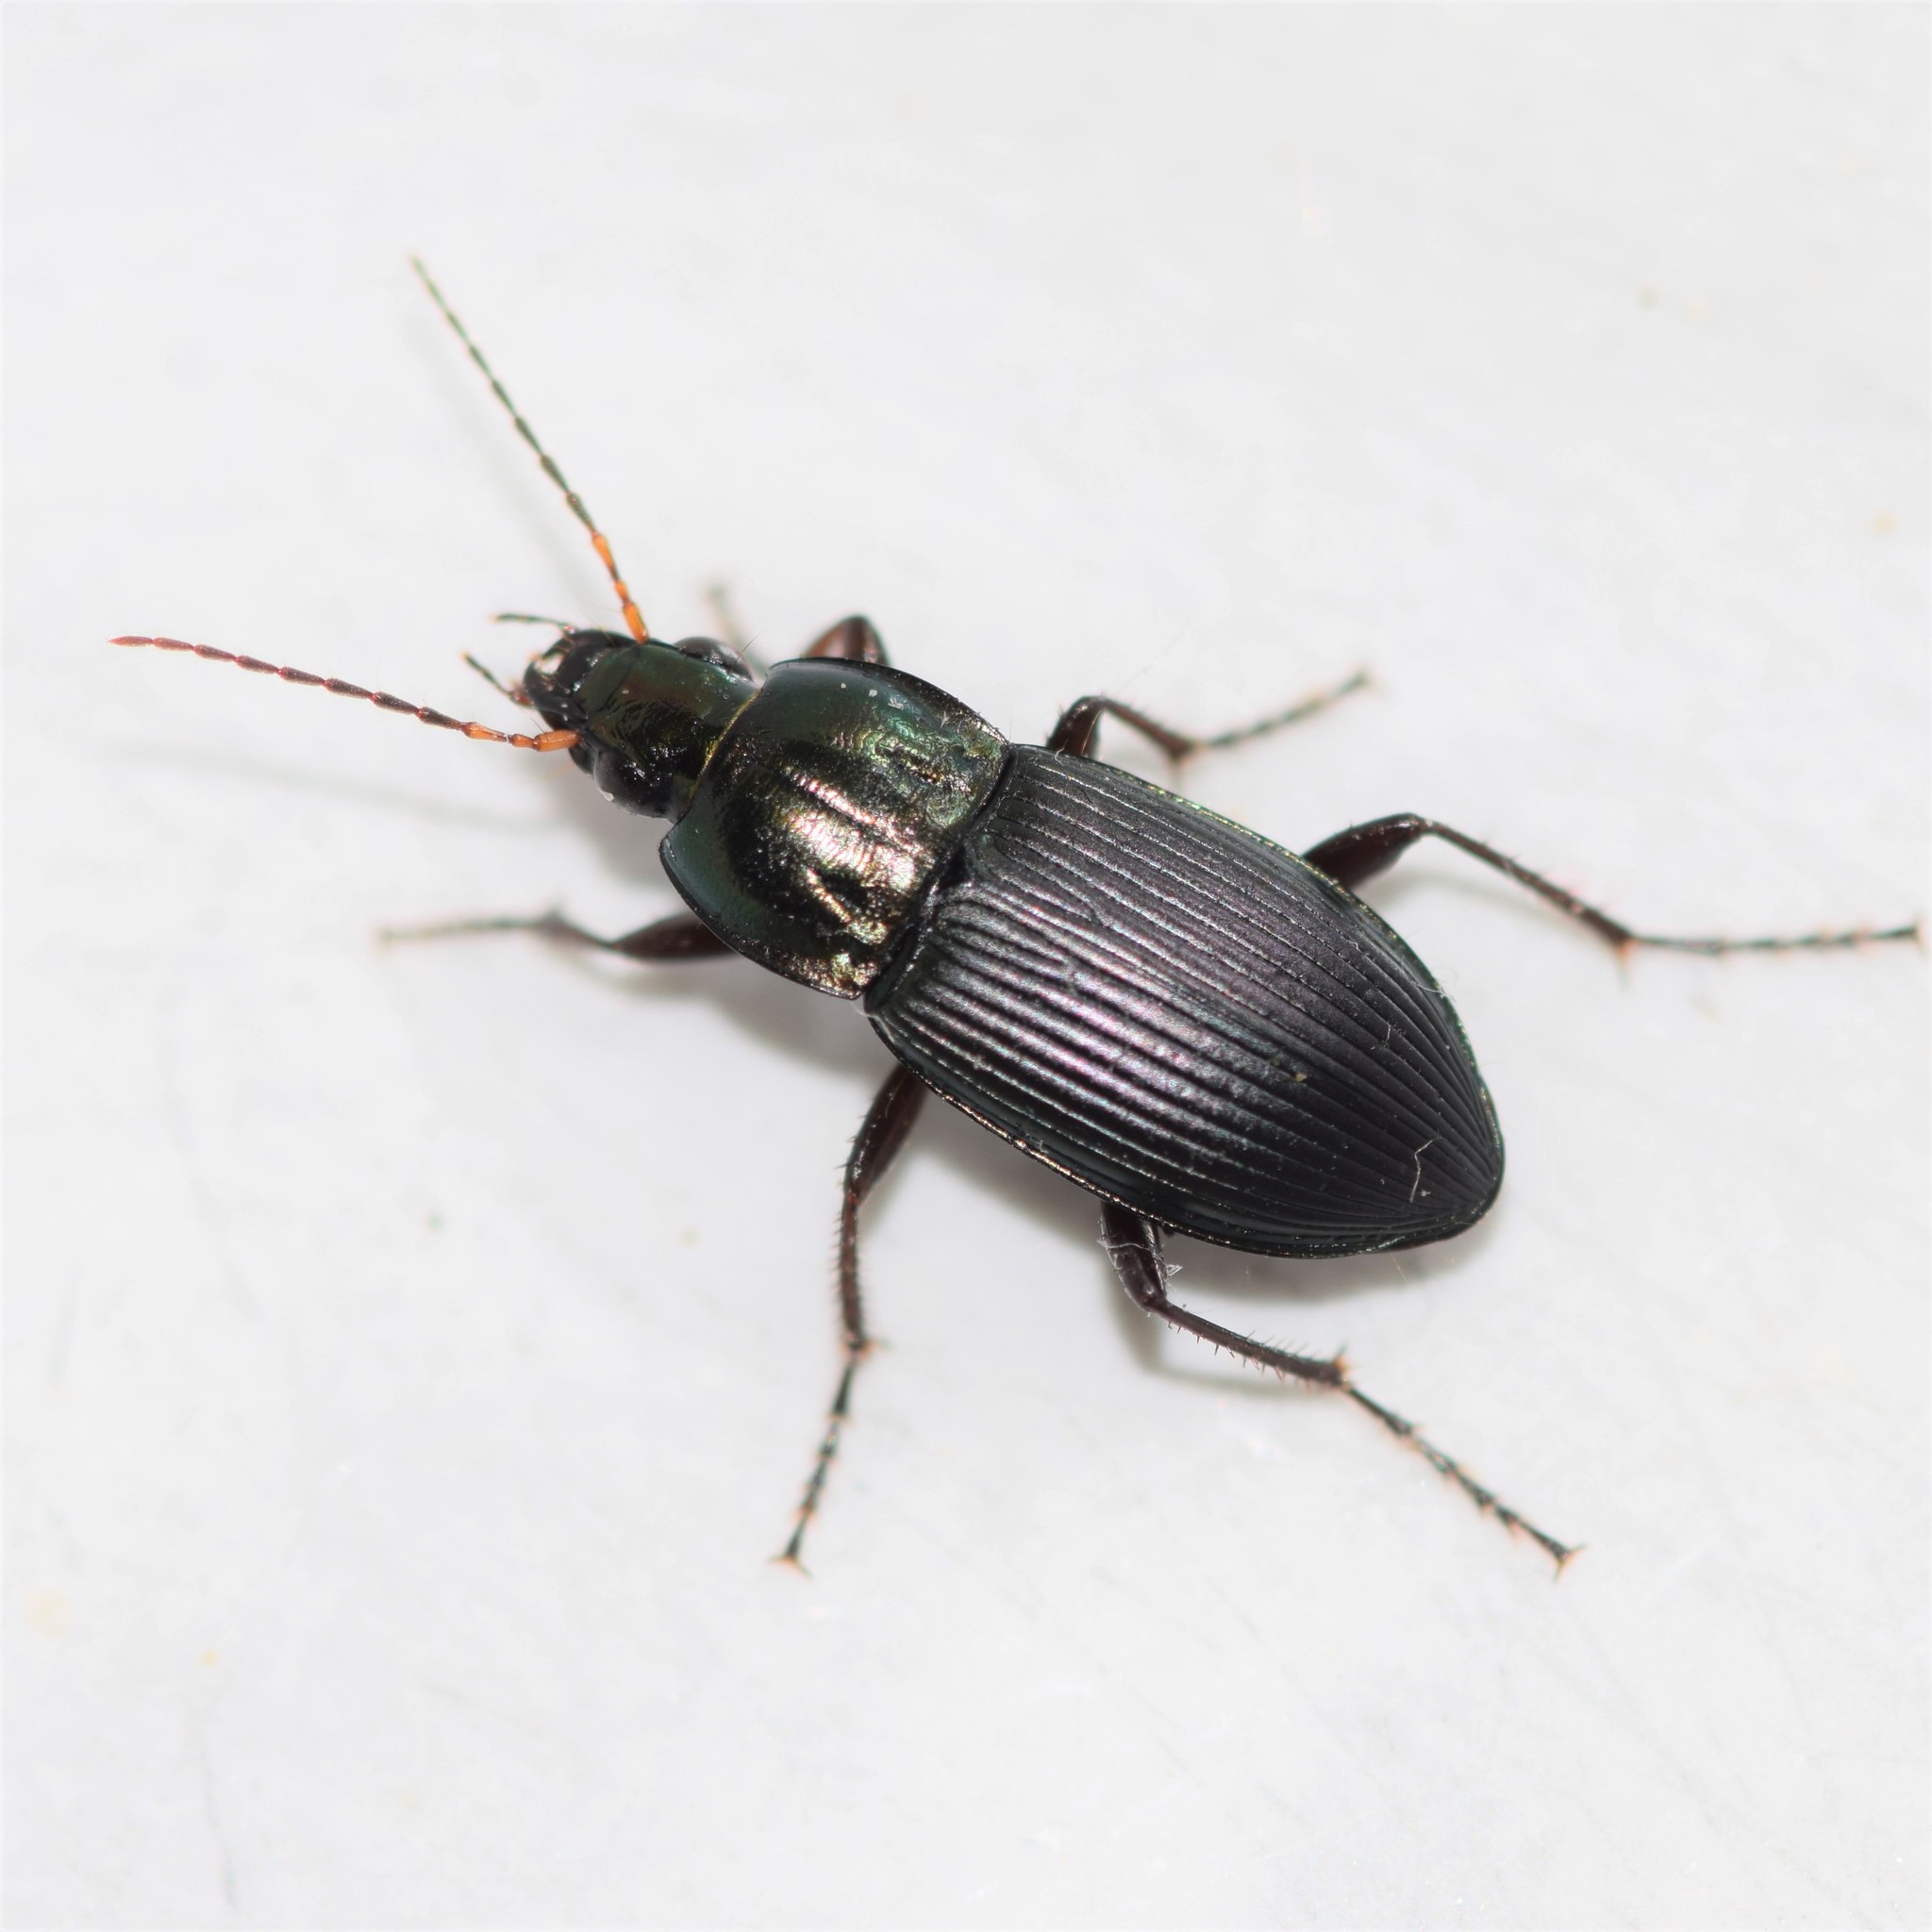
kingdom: Animalia
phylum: Arthropoda
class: Insecta
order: Coleoptera
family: Carabidae
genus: Poecilus
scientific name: Poecilus lucublandus
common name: Woodland ground beetle
